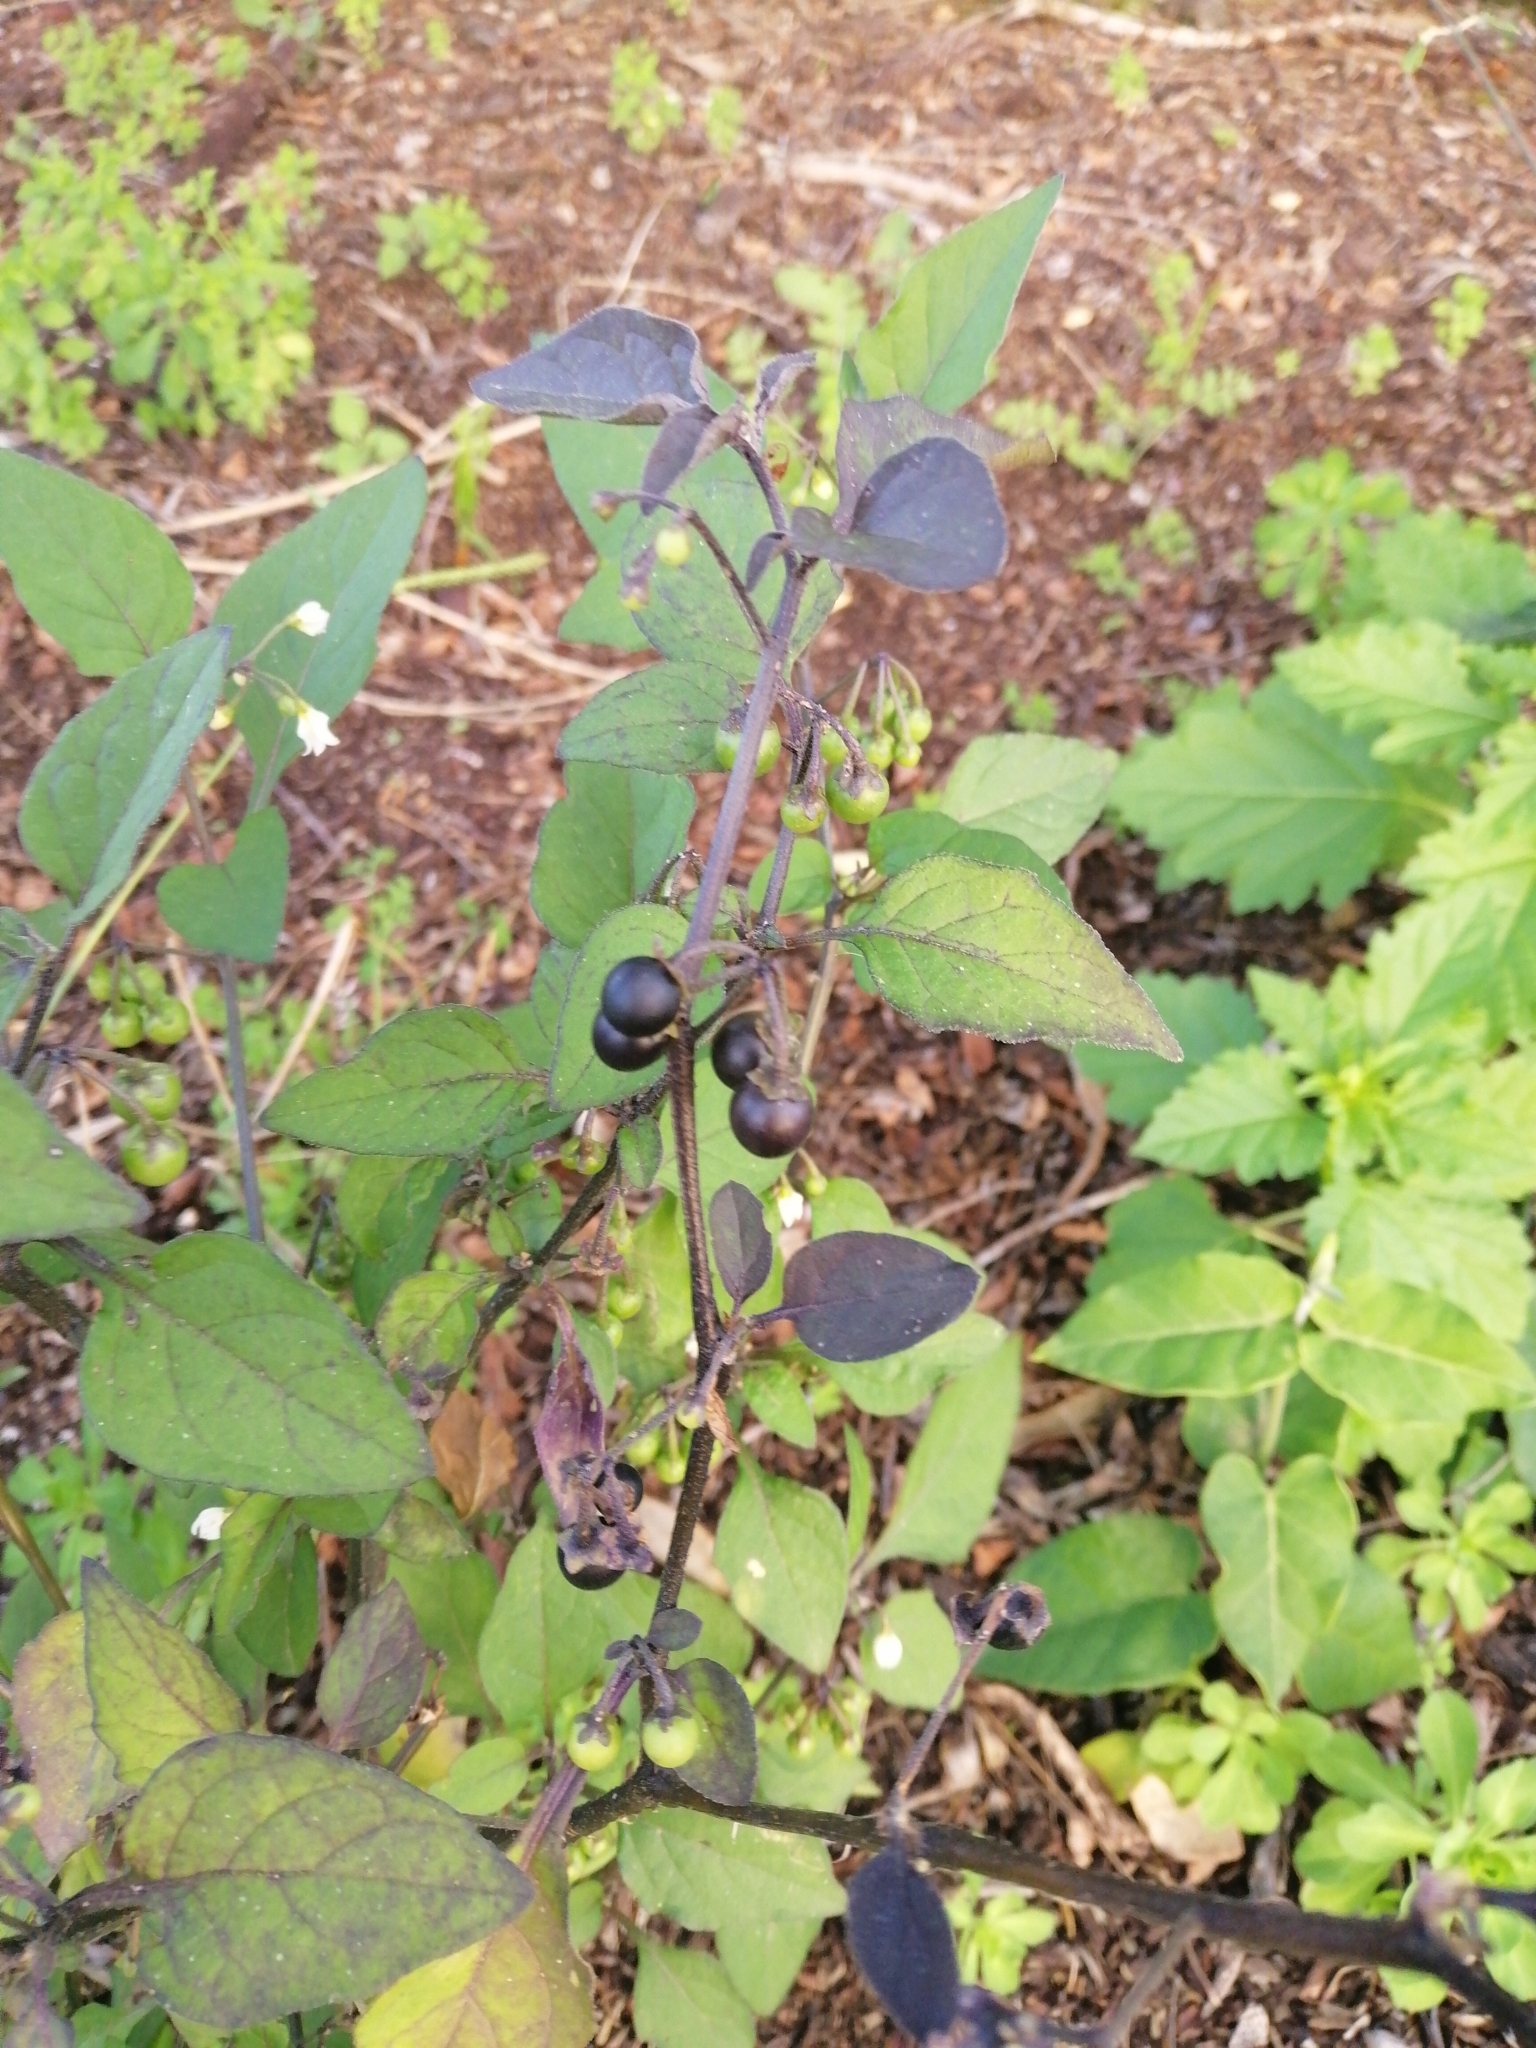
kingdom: Plantae
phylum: Tracheophyta
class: Magnoliopsida
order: Solanales
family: Solanaceae
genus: Solanum
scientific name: Solanum nigrum
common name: Black nightshade
